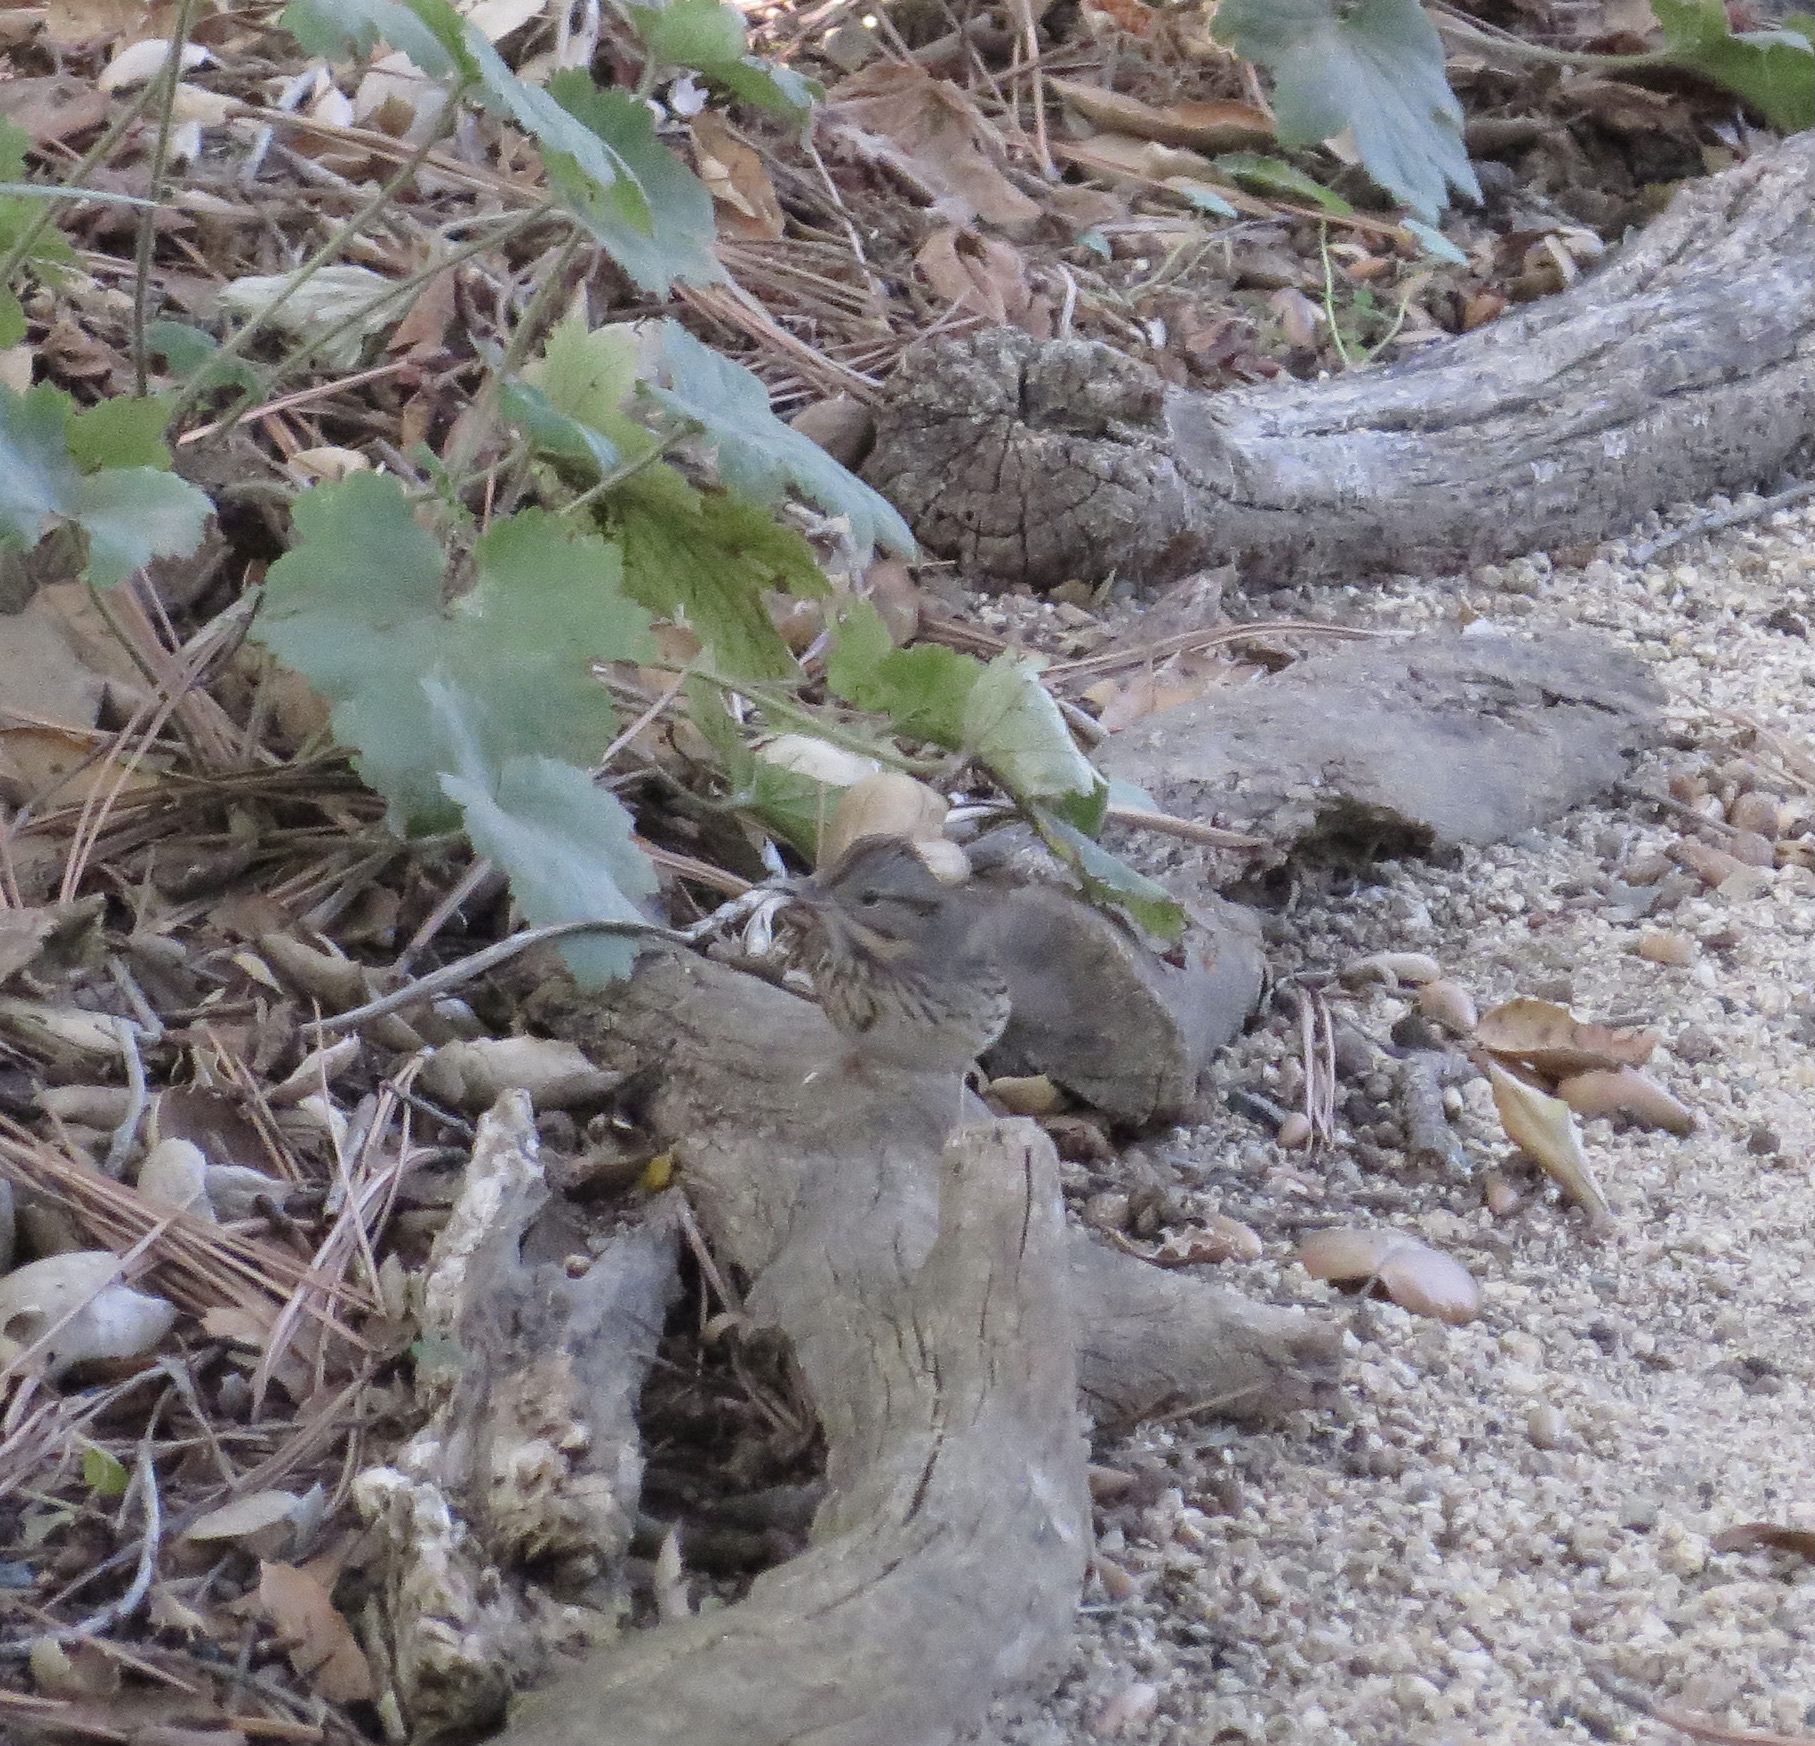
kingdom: Animalia
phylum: Chordata
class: Aves
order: Passeriformes
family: Passerellidae
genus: Melospiza
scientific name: Melospiza lincolnii
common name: Lincoln's sparrow
